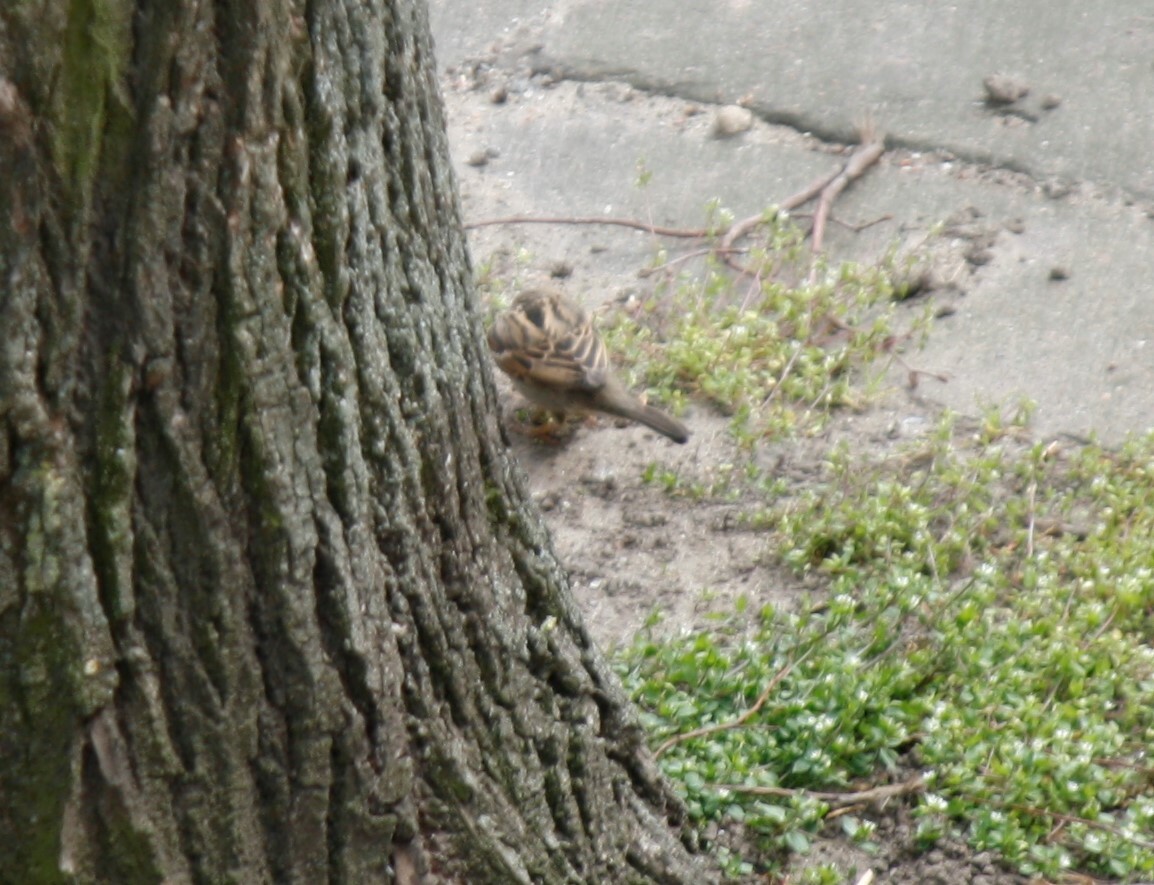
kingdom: Animalia
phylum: Chordata
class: Aves
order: Passeriformes
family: Passeridae
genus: Passer
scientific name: Passer domesticus
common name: House sparrow
